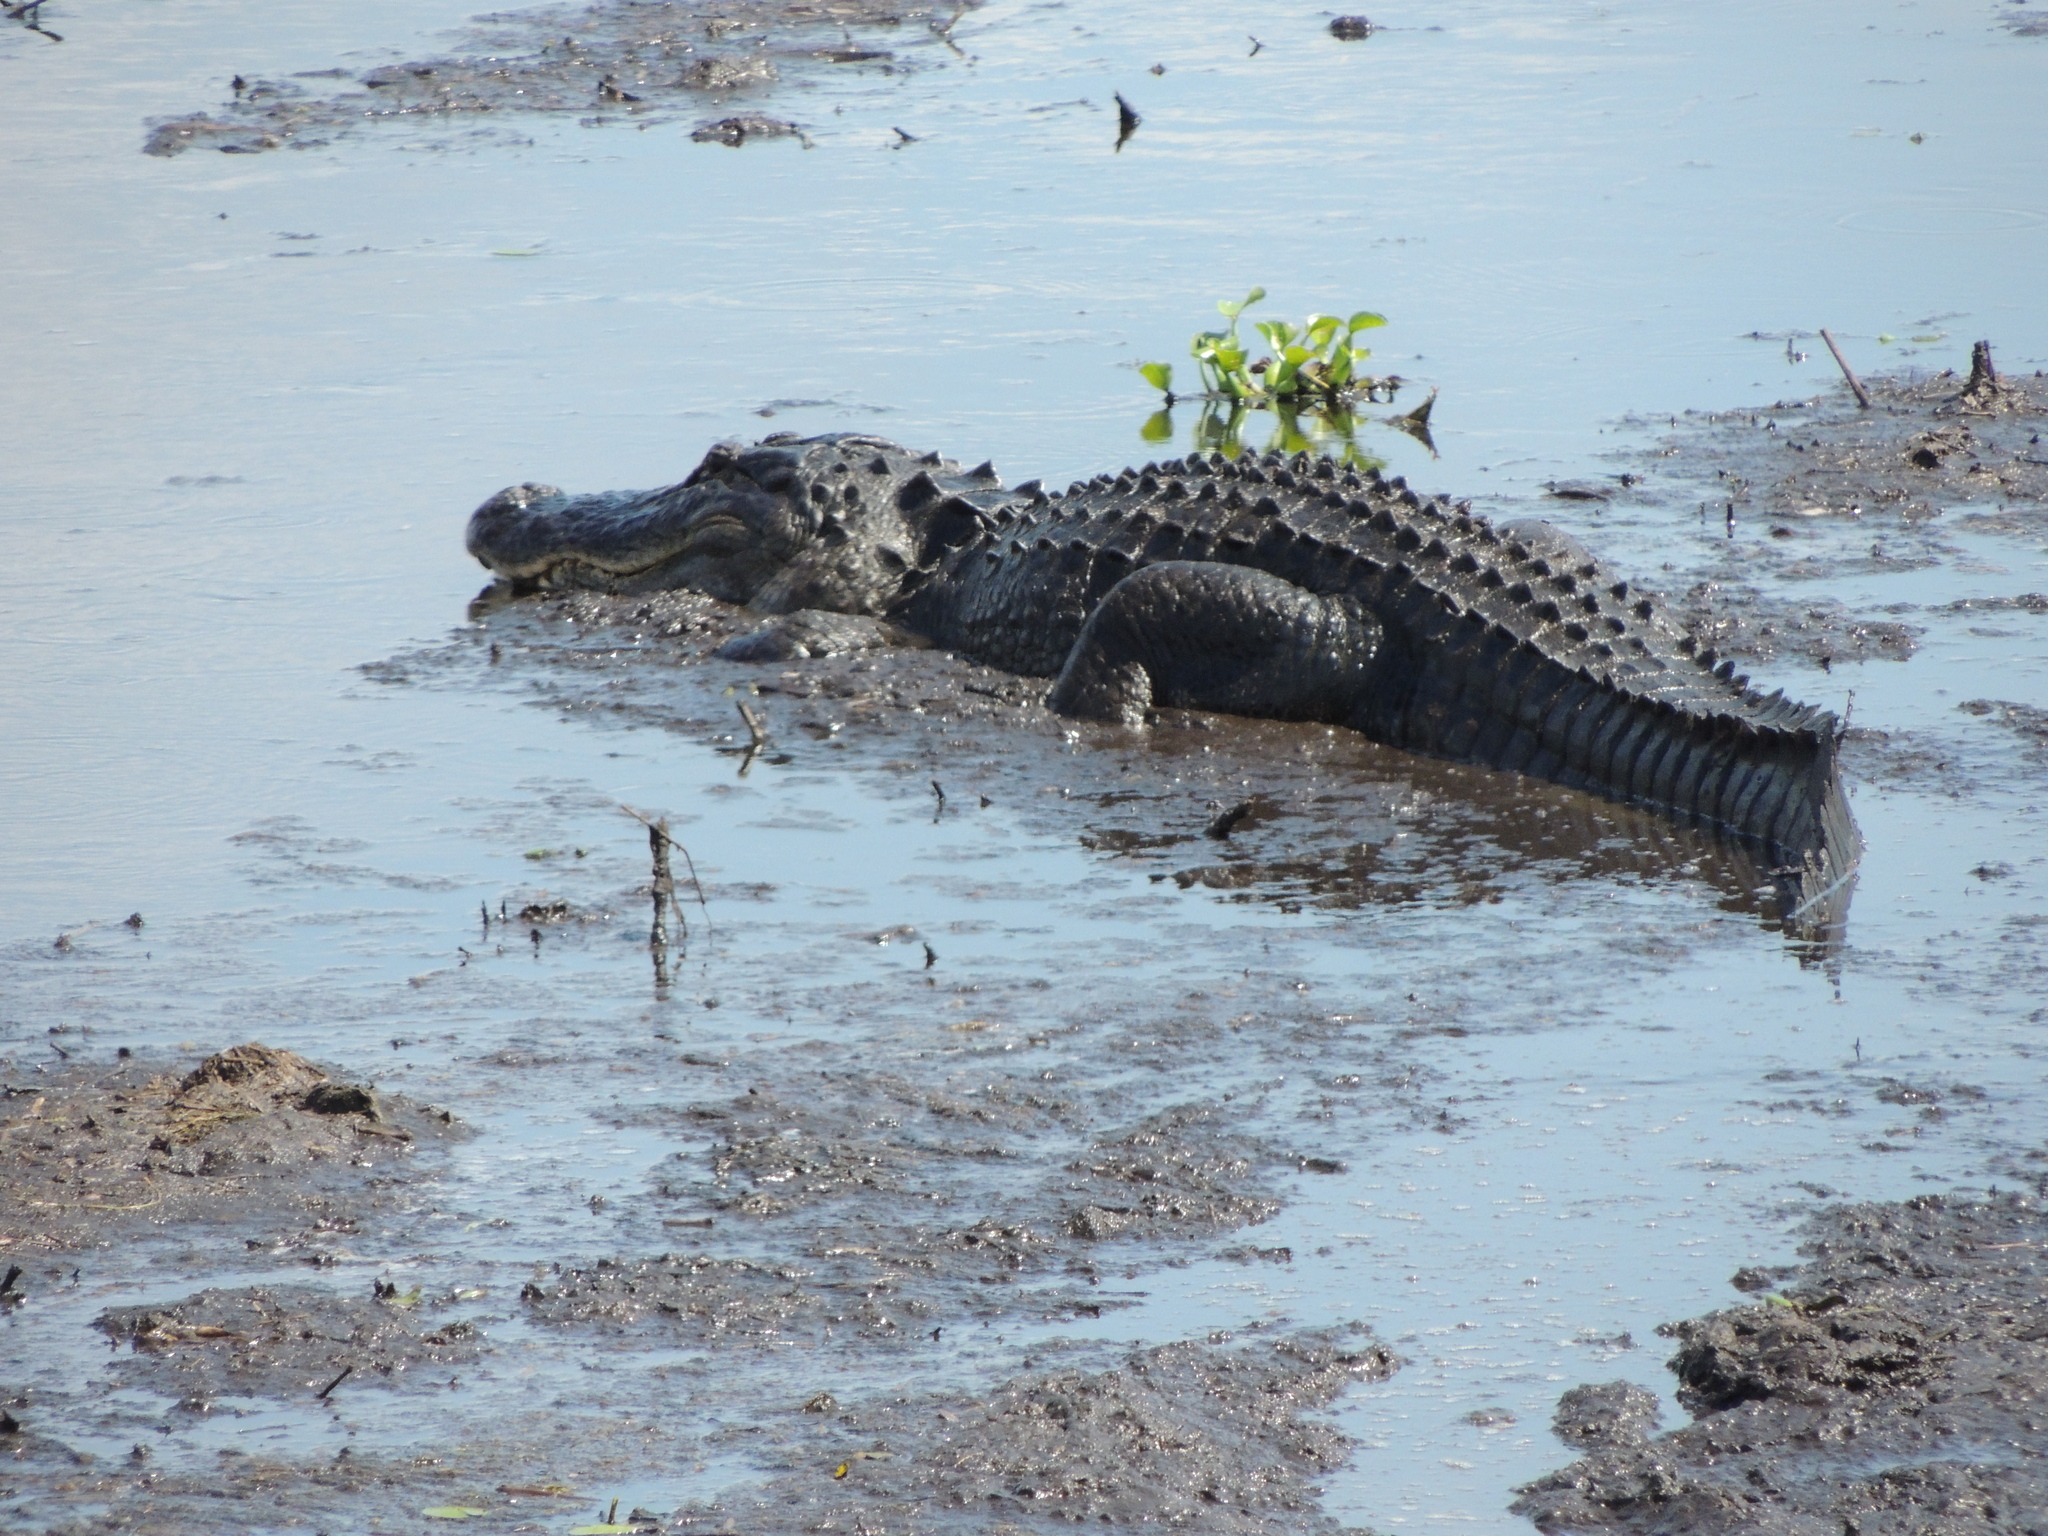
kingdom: Animalia
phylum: Chordata
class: Crocodylia
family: Alligatoridae
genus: Alligator
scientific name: Alligator mississippiensis
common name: American alligator
